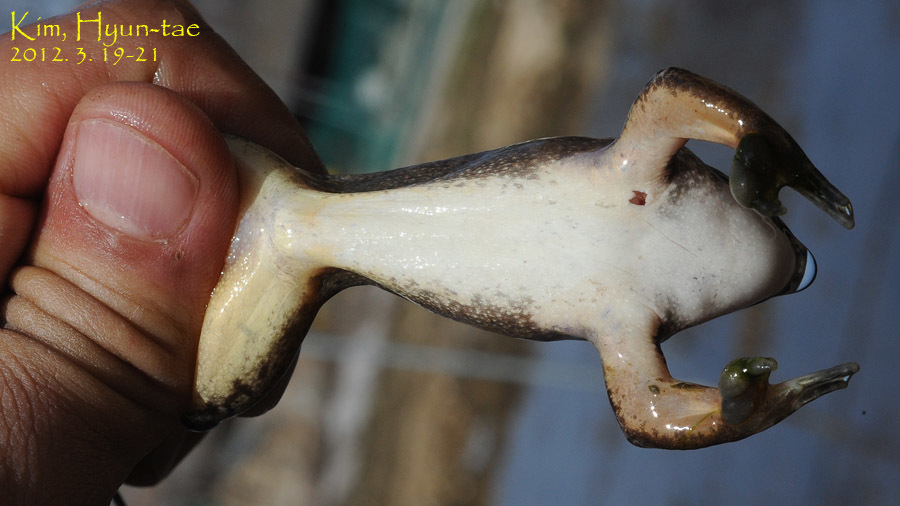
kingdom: Animalia
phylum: Chordata
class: Amphibia
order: Anura
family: Ranidae
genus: Rana
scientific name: Rana uenoi
